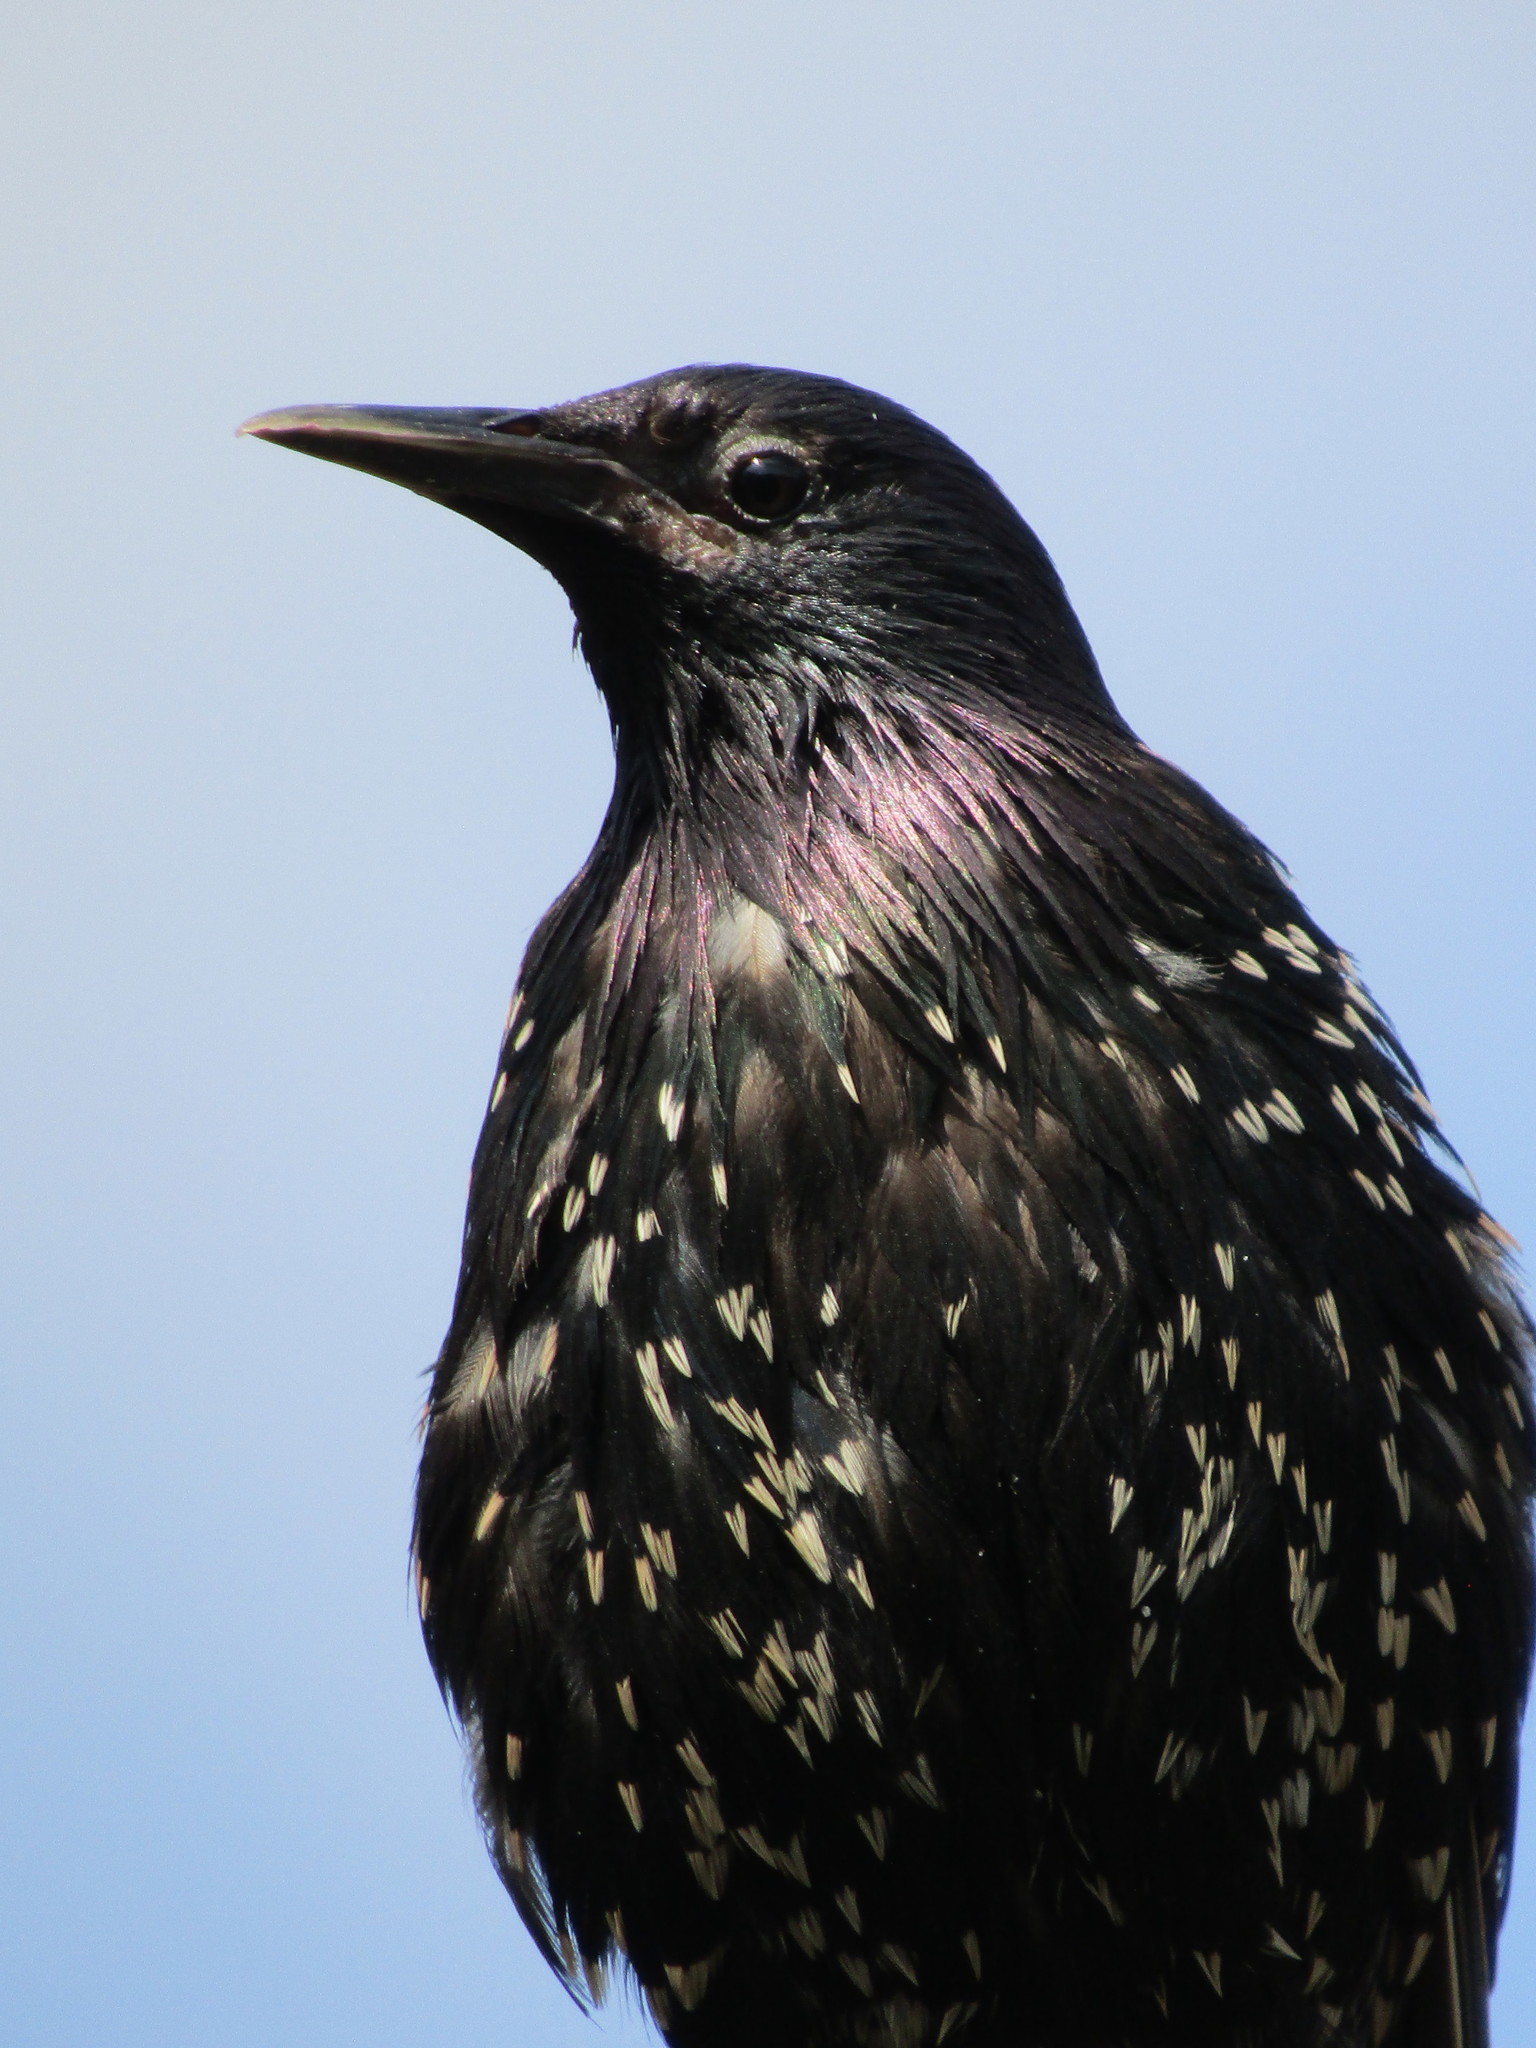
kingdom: Animalia
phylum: Chordata
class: Aves
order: Passeriformes
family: Sturnidae
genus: Sturnus
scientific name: Sturnus vulgaris
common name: Common starling
